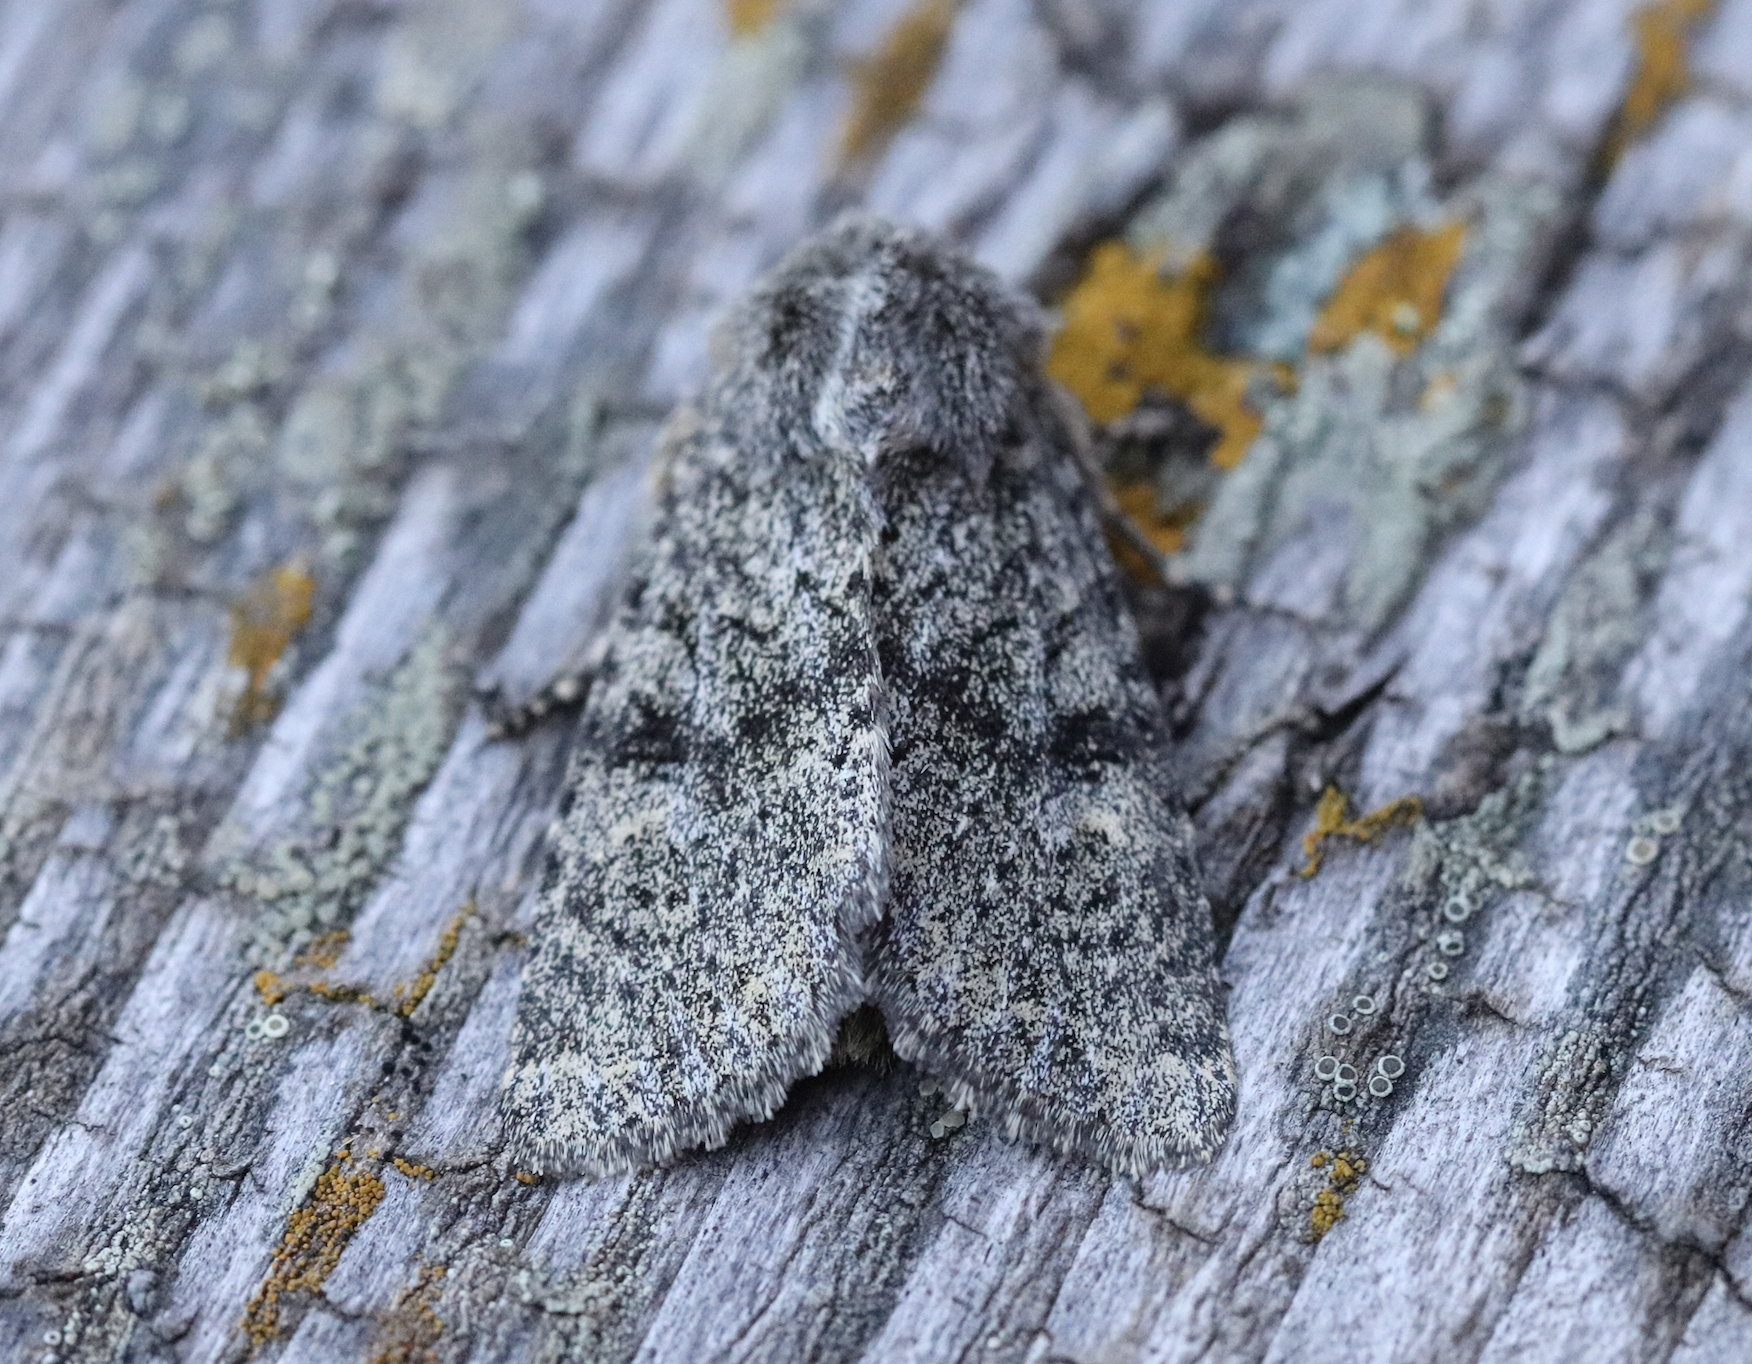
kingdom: Animalia
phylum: Arthropoda
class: Insecta
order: Lepidoptera
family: Noctuidae
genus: Apamea
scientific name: Apamea zeta
